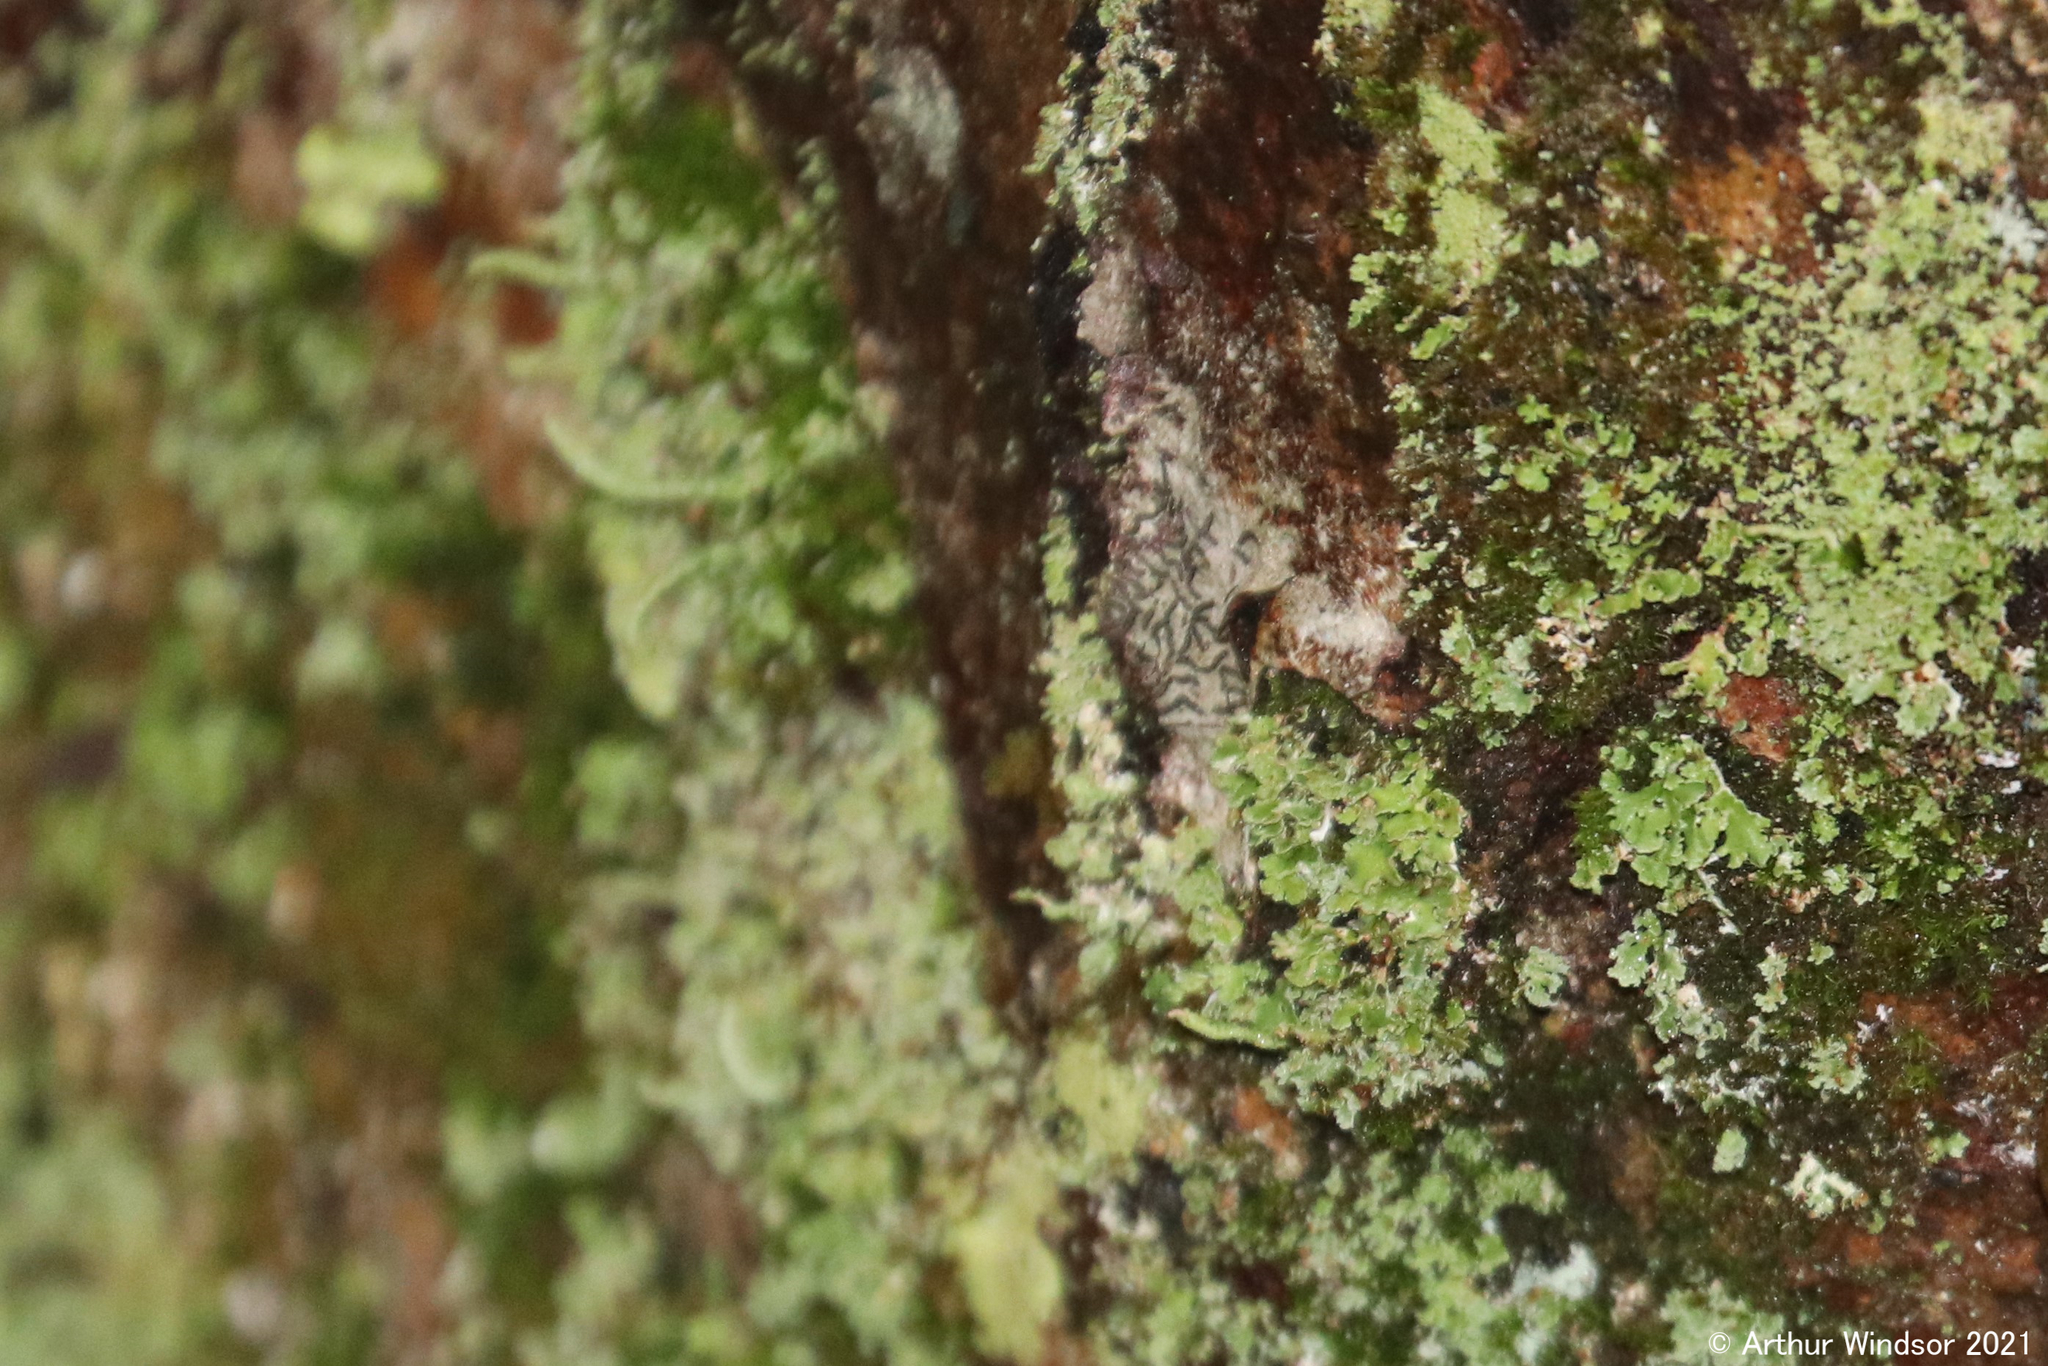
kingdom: Fungi
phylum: Ascomycota
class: Lecanoromycetes
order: Ostropales
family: Graphidaceae
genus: Graphis
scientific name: Graphis scripta
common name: Script lichen
